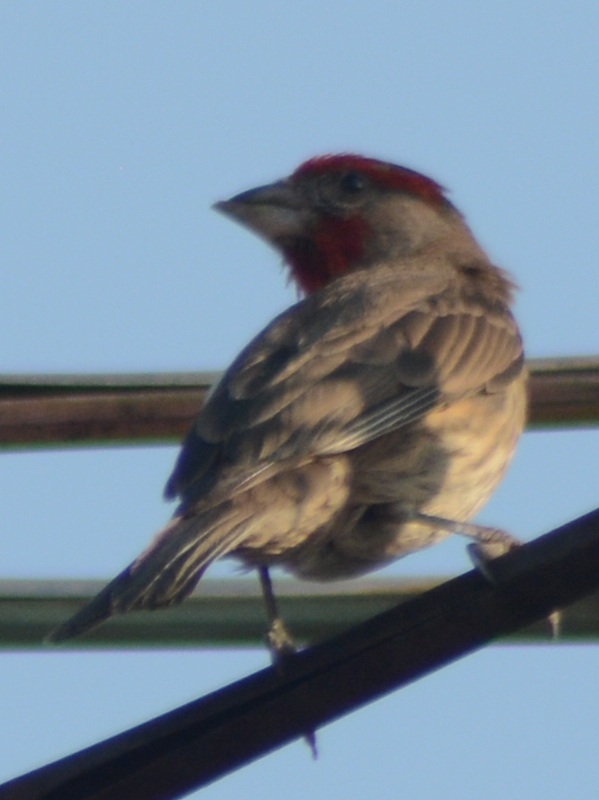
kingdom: Animalia
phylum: Chordata
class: Aves
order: Passeriformes
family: Fringillidae
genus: Haemorhous
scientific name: Haemorhous mexicanus
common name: House finch
